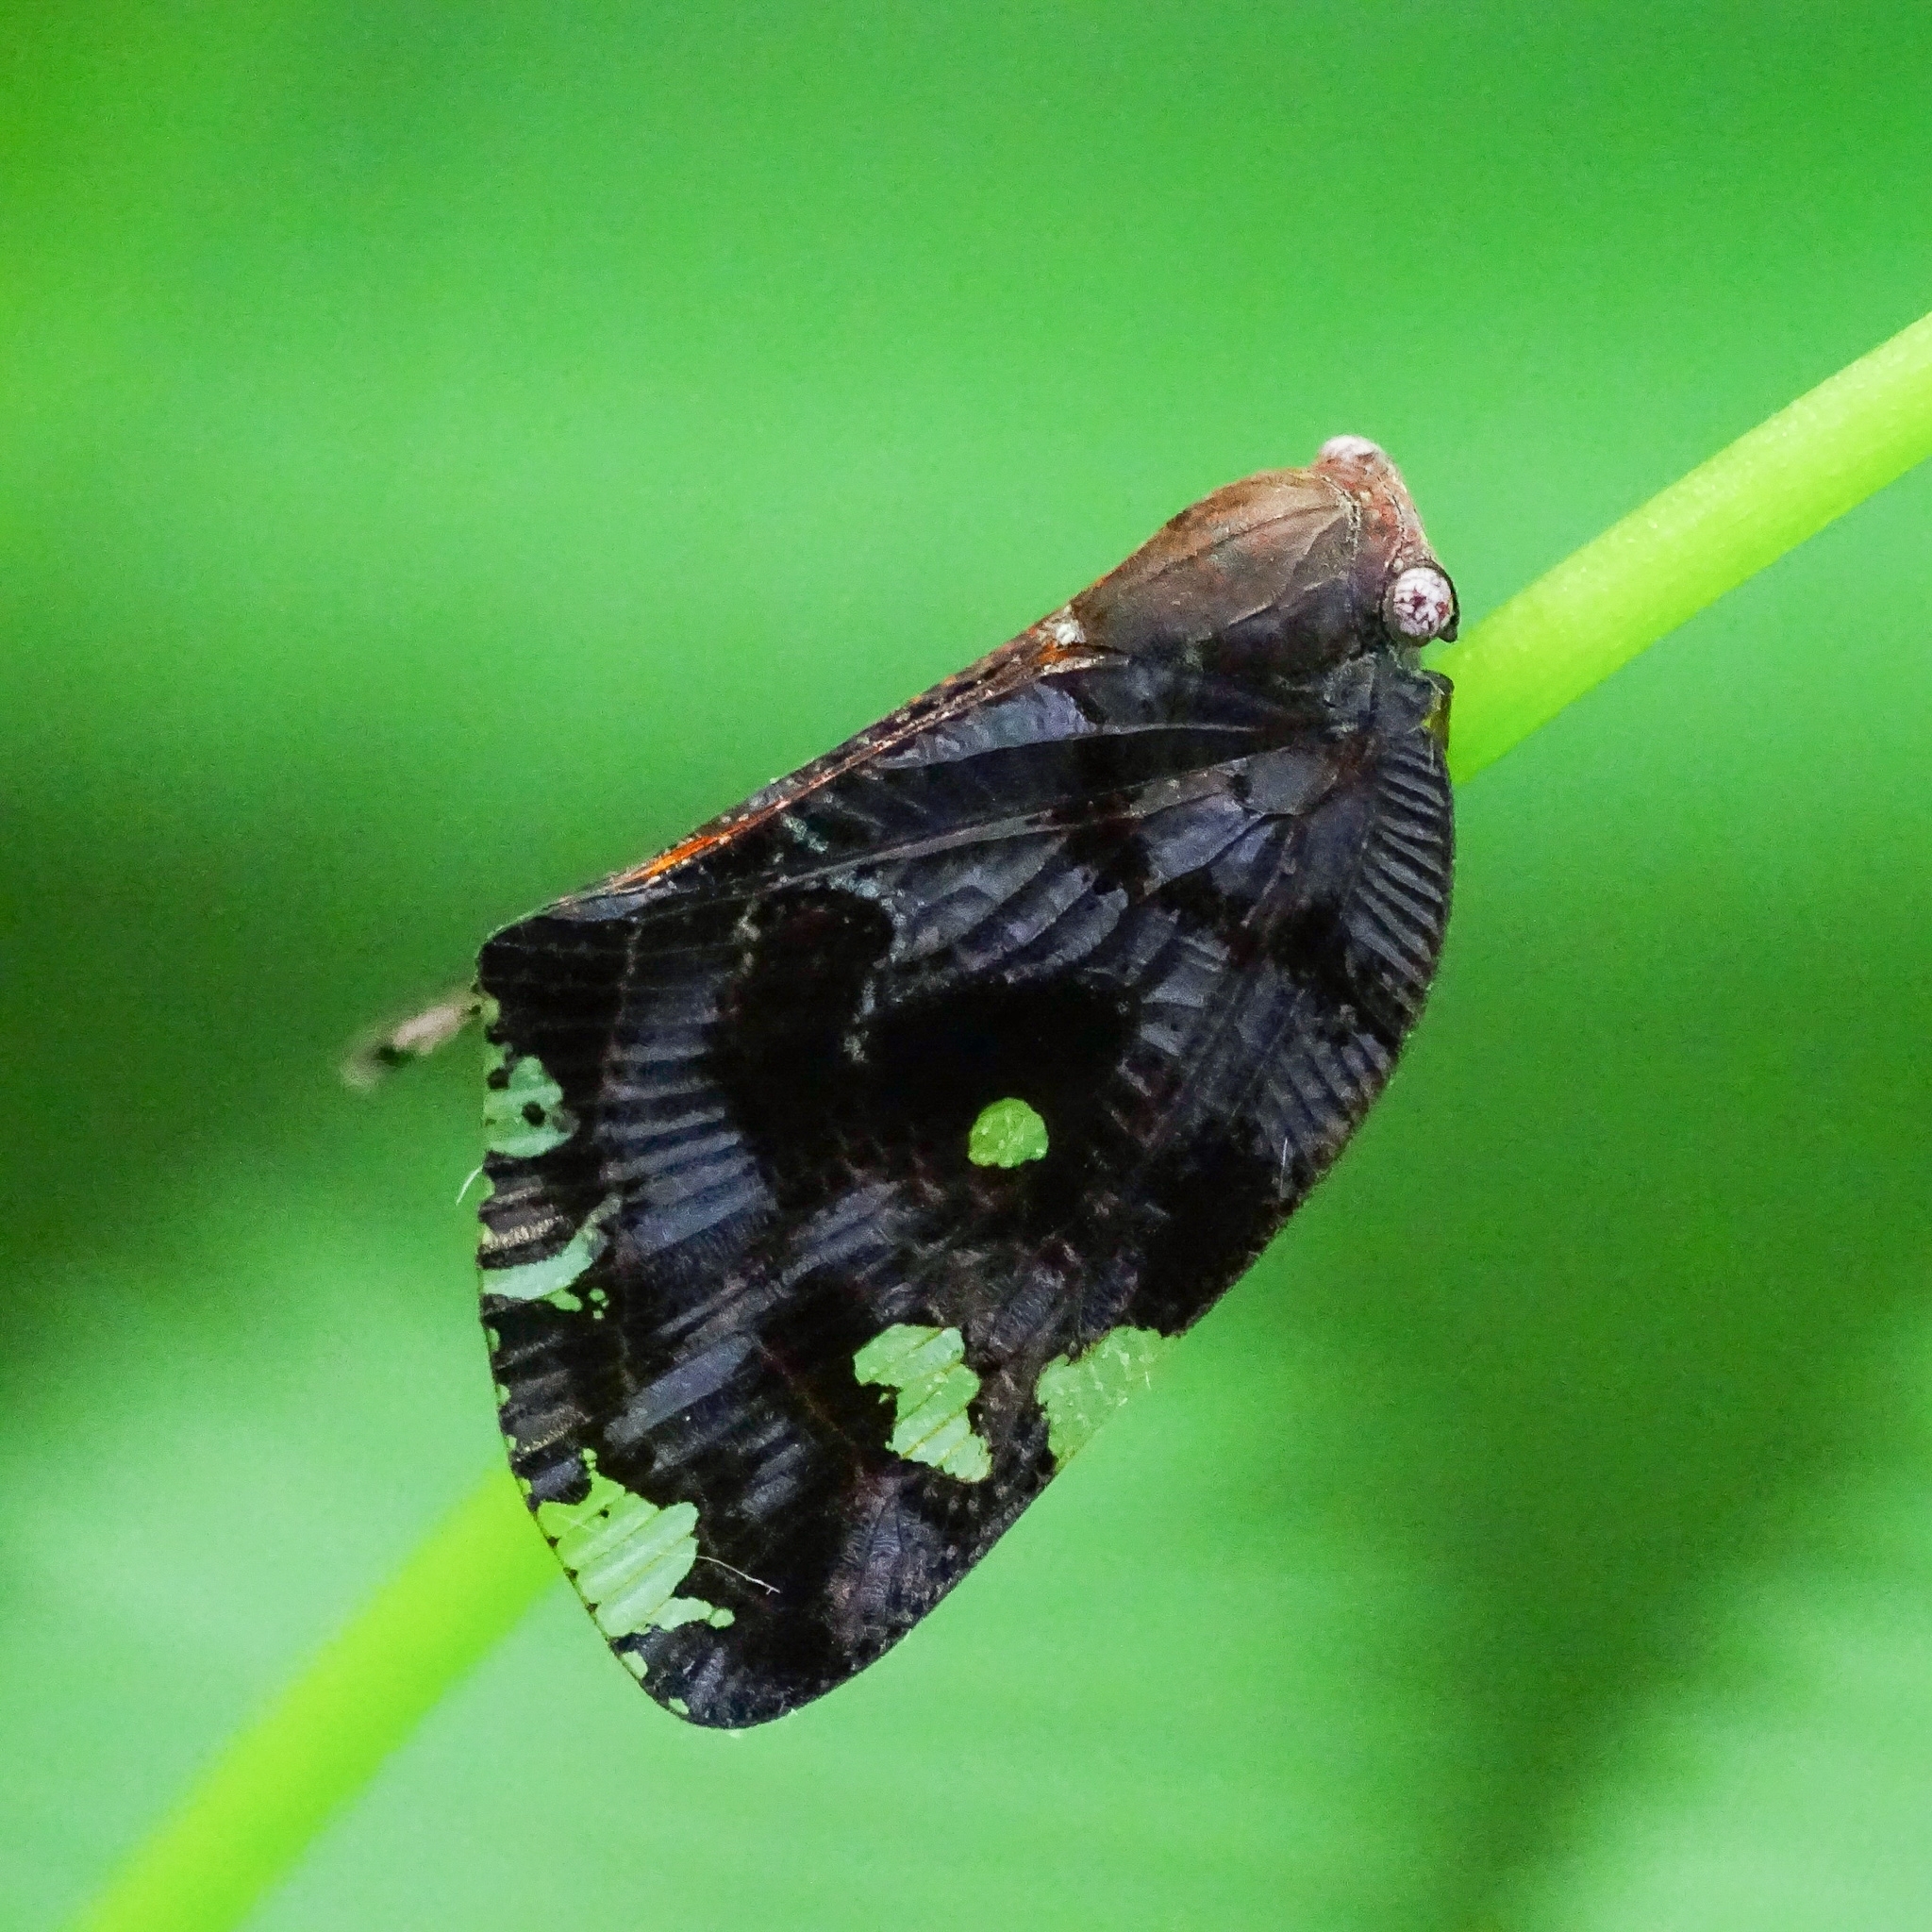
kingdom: Animalia
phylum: Arthropoda
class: Insecta
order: Hemiptera
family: Ricaniidae
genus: Ricania
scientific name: Ricania speculum
